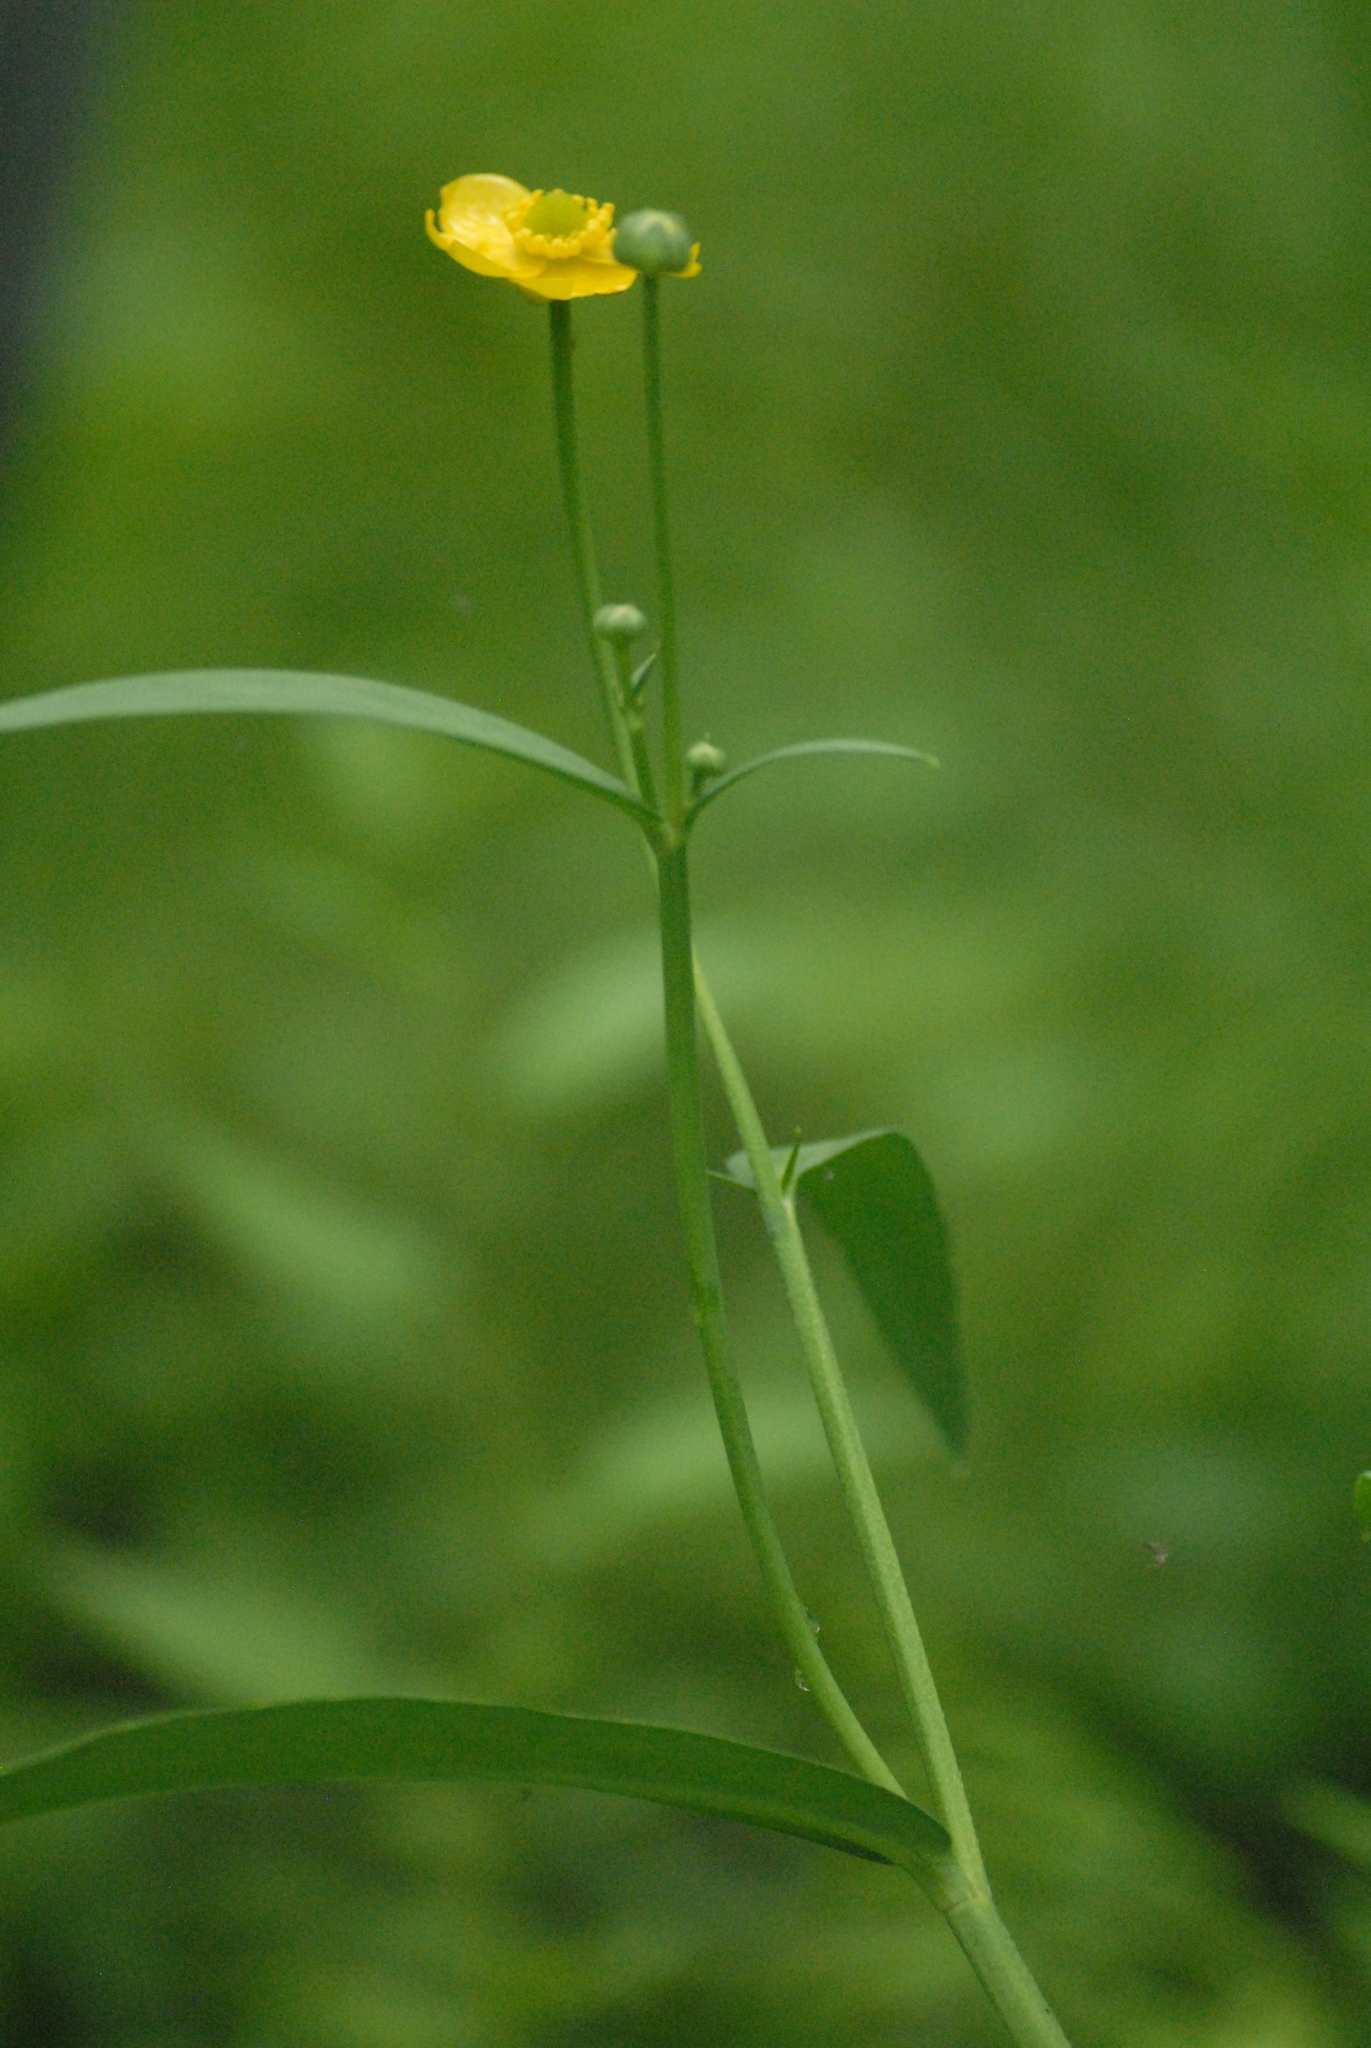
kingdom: Plantae
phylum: Tracheophyta
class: Magnoliopsida
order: Ranunculales
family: Ranunculaceae
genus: Ranunculus
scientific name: Ranunculus lingua
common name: Greater spearwort
